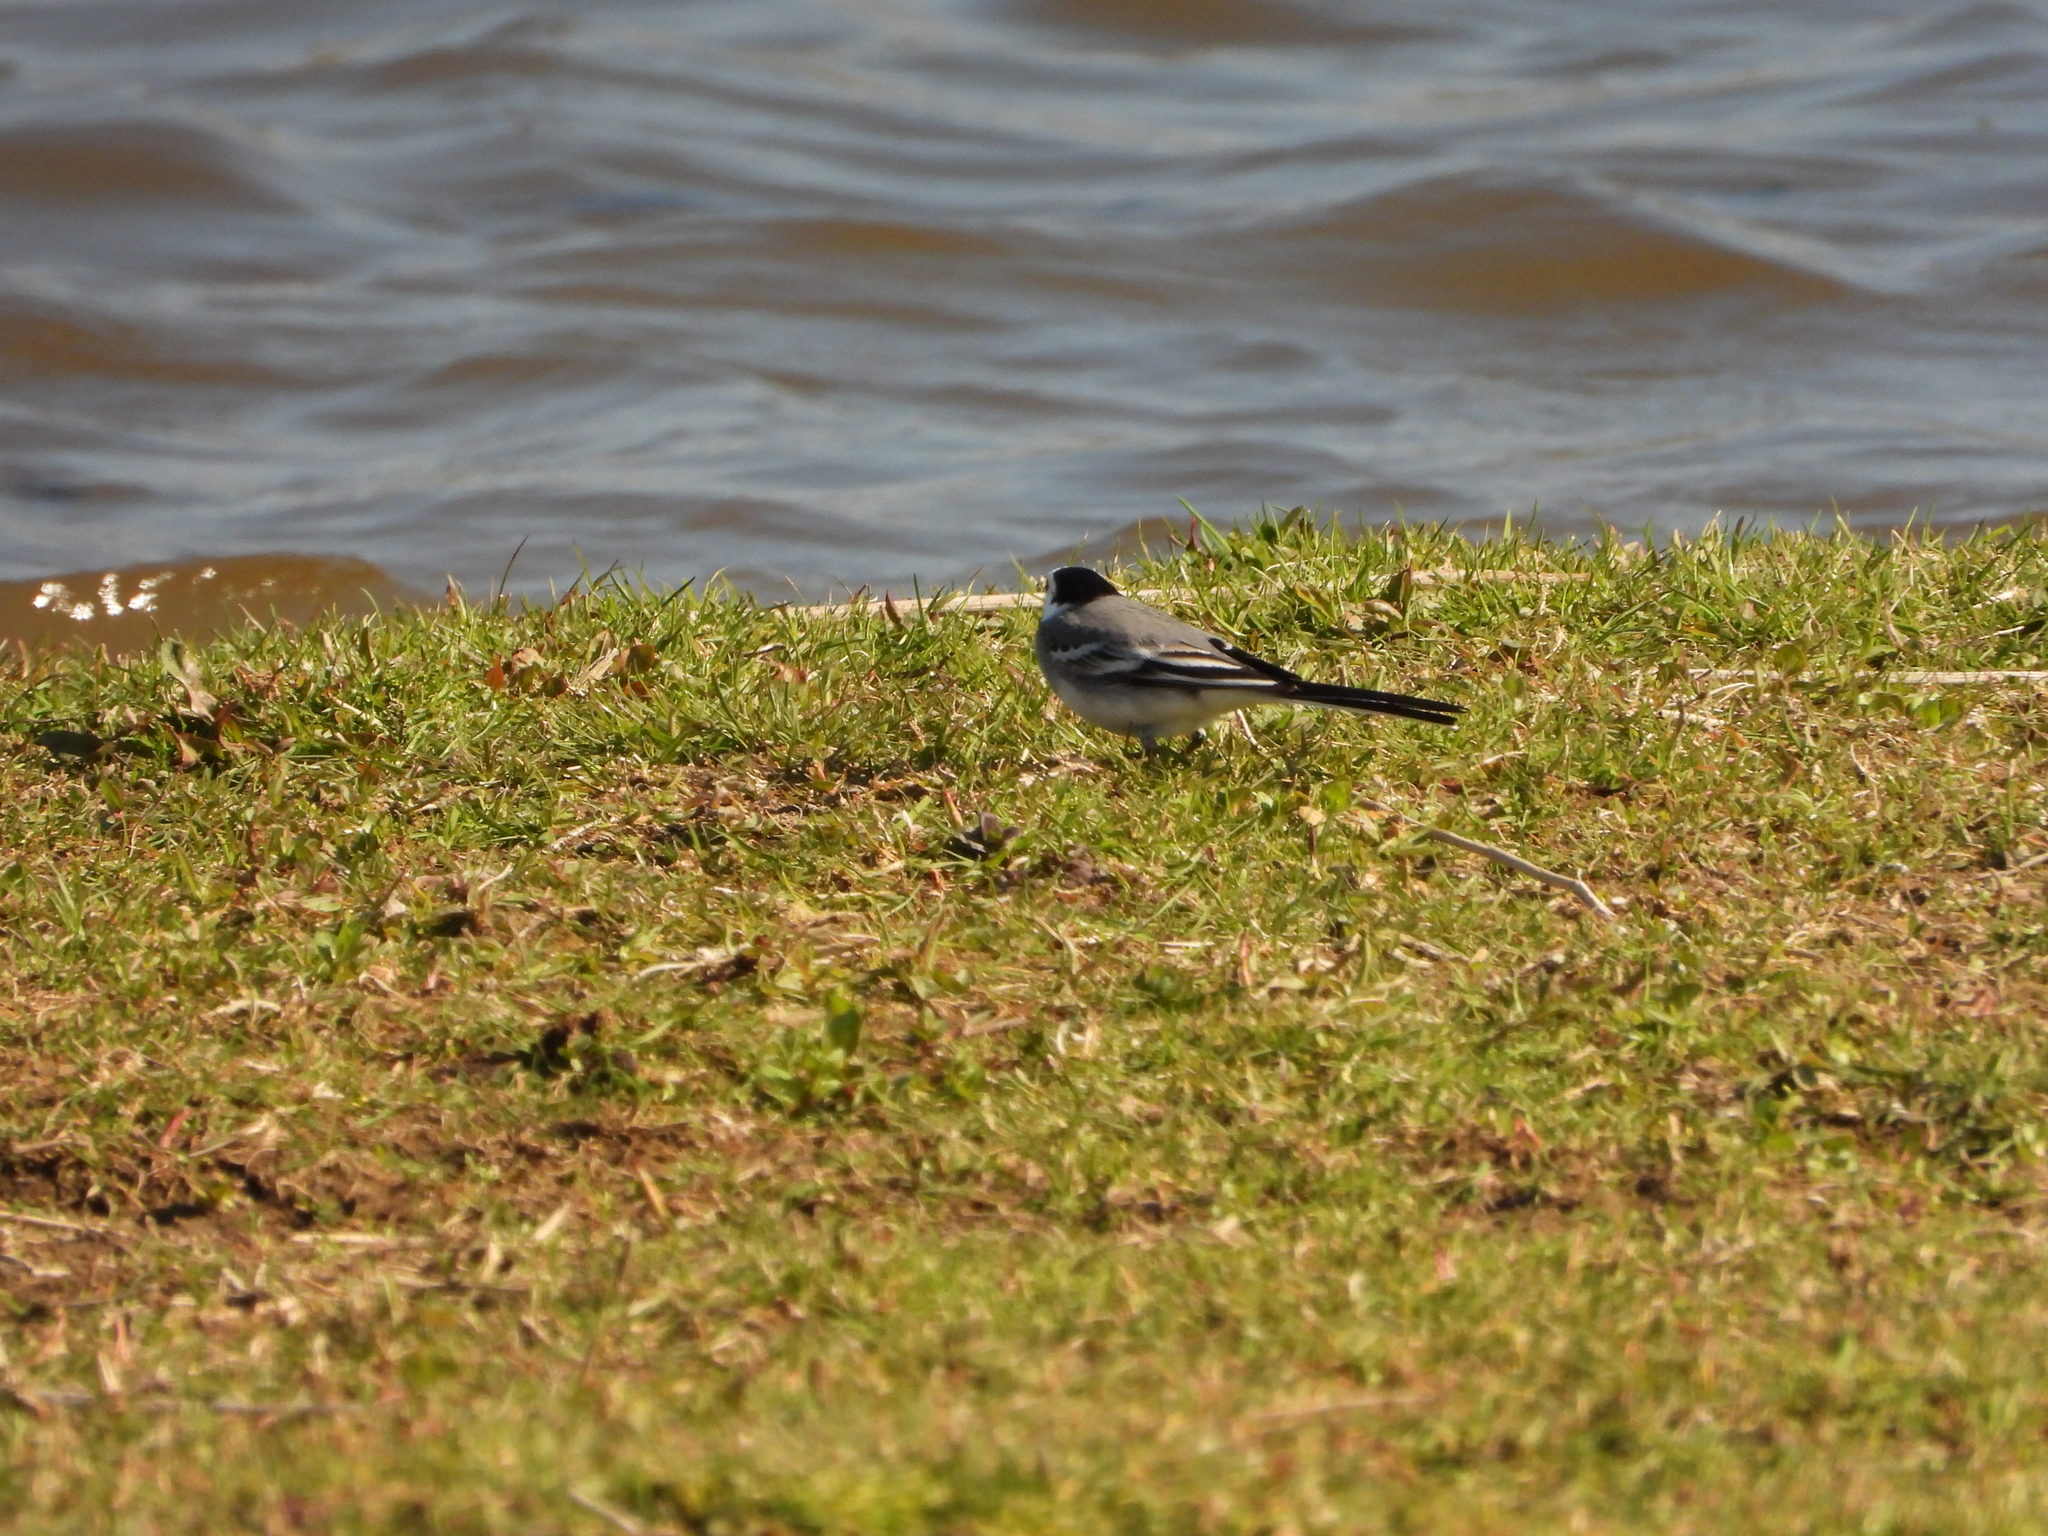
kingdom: Animalia
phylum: Chordata
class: Aves
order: Passeriformes
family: Motacillidae
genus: Motacilla
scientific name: Motacilla alba
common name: White wagtail
